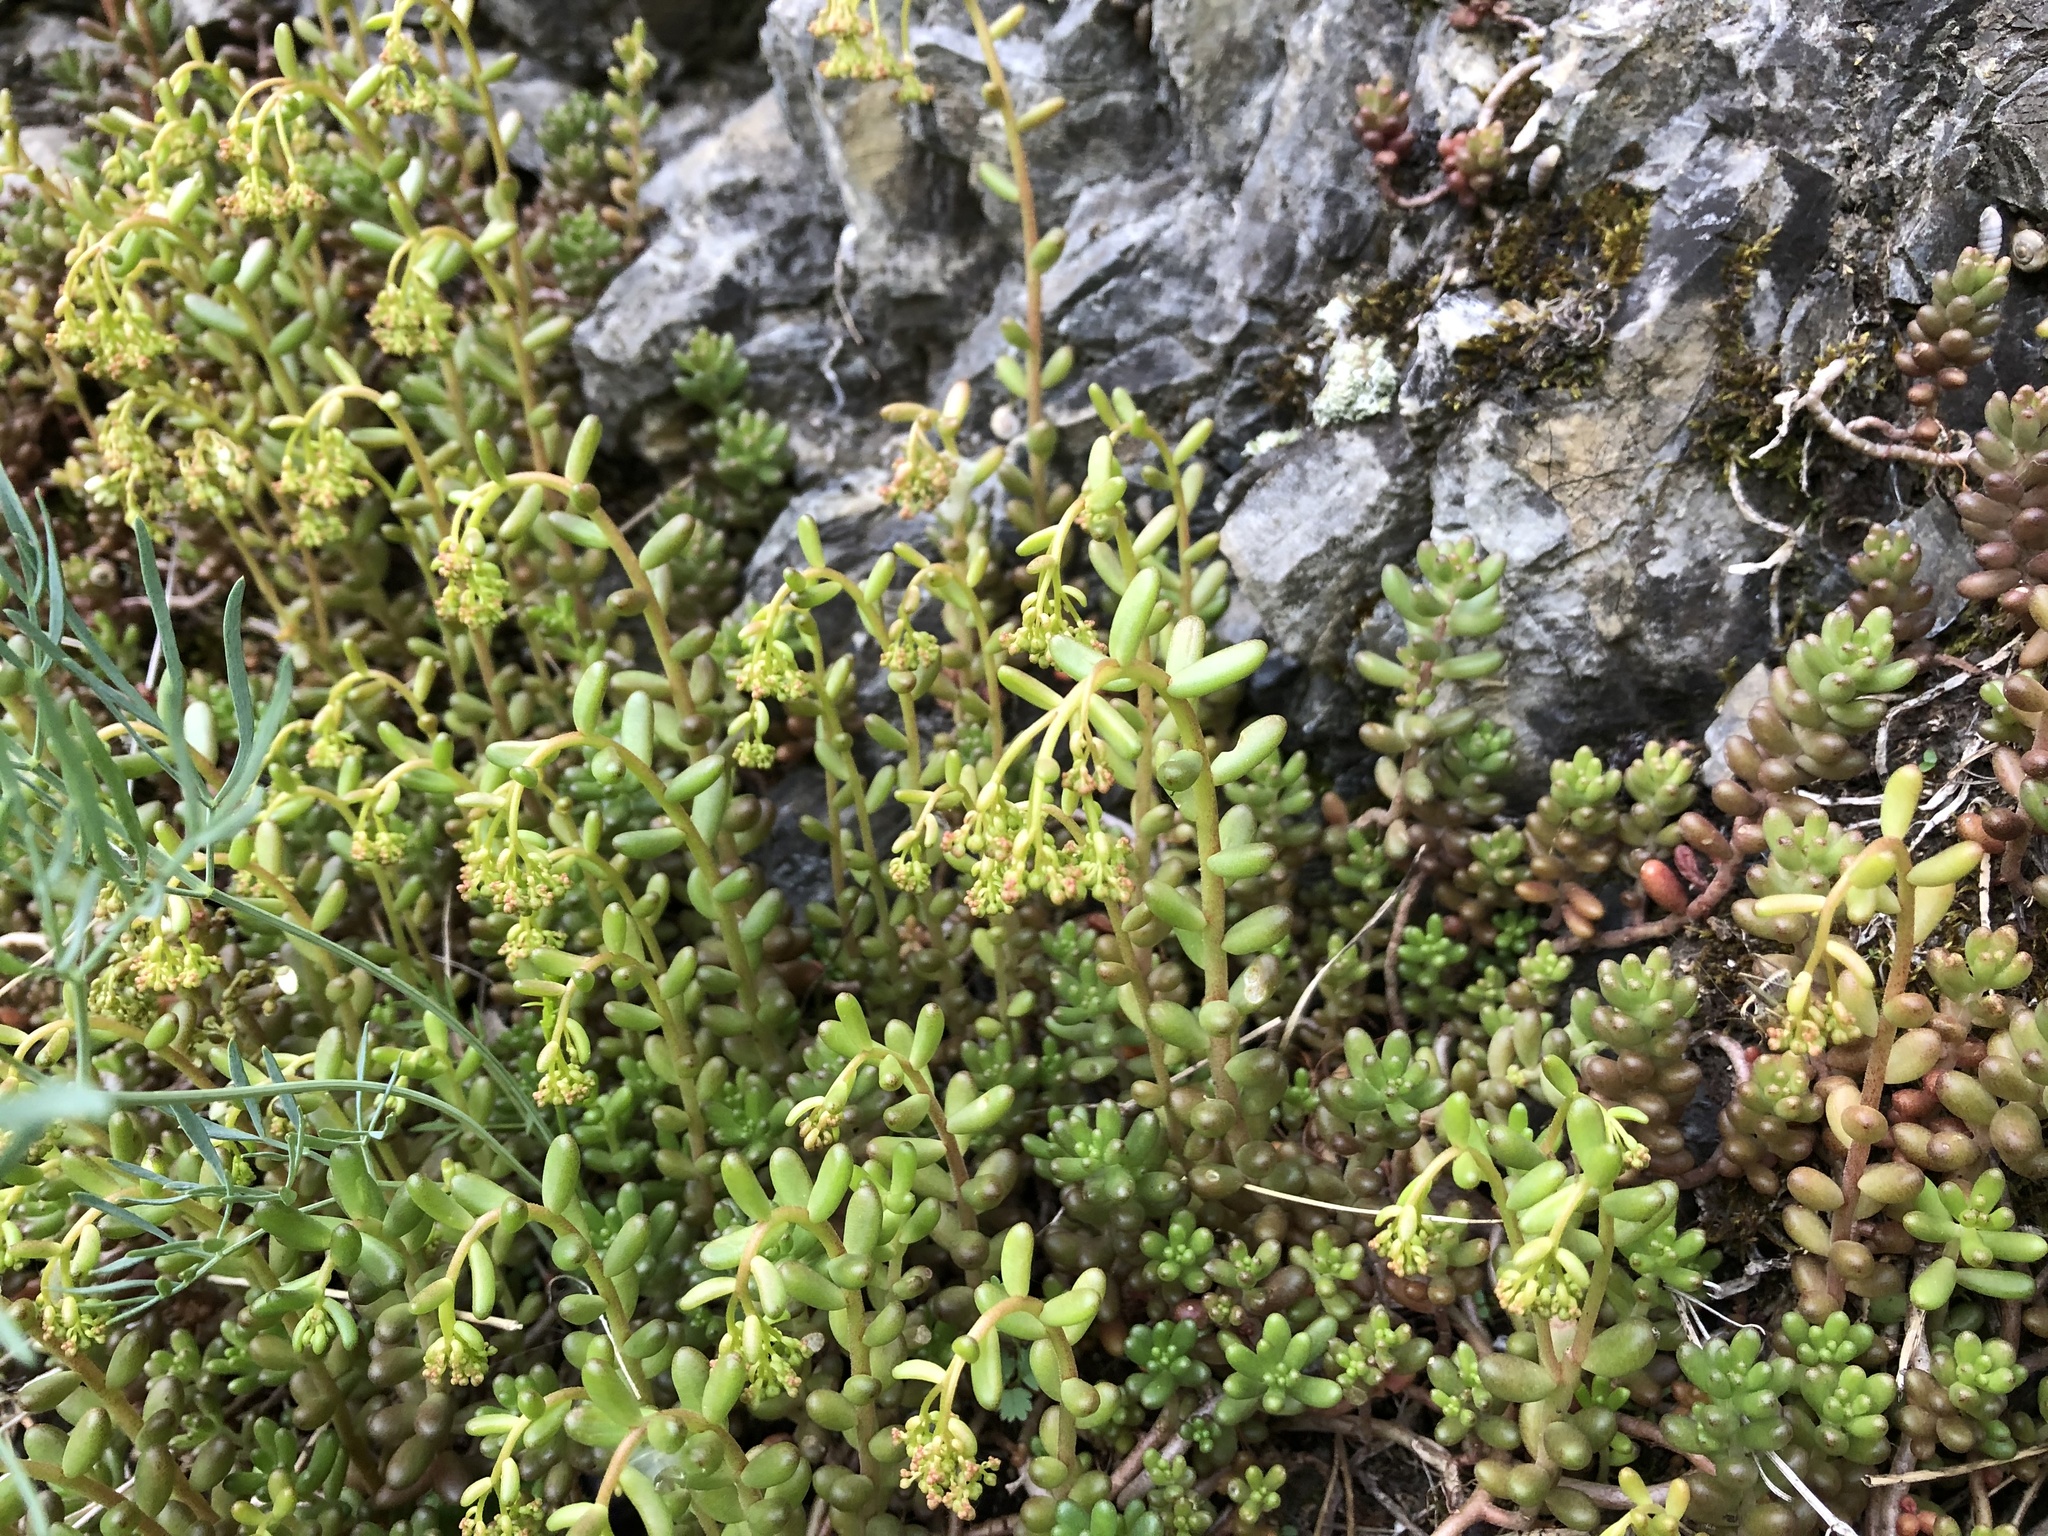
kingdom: Plantae
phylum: Tracheophyta
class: Magnoliopsida
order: Saxifragales
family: Crassulaceae
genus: Sedum
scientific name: Sedum album
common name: White stonecrop
